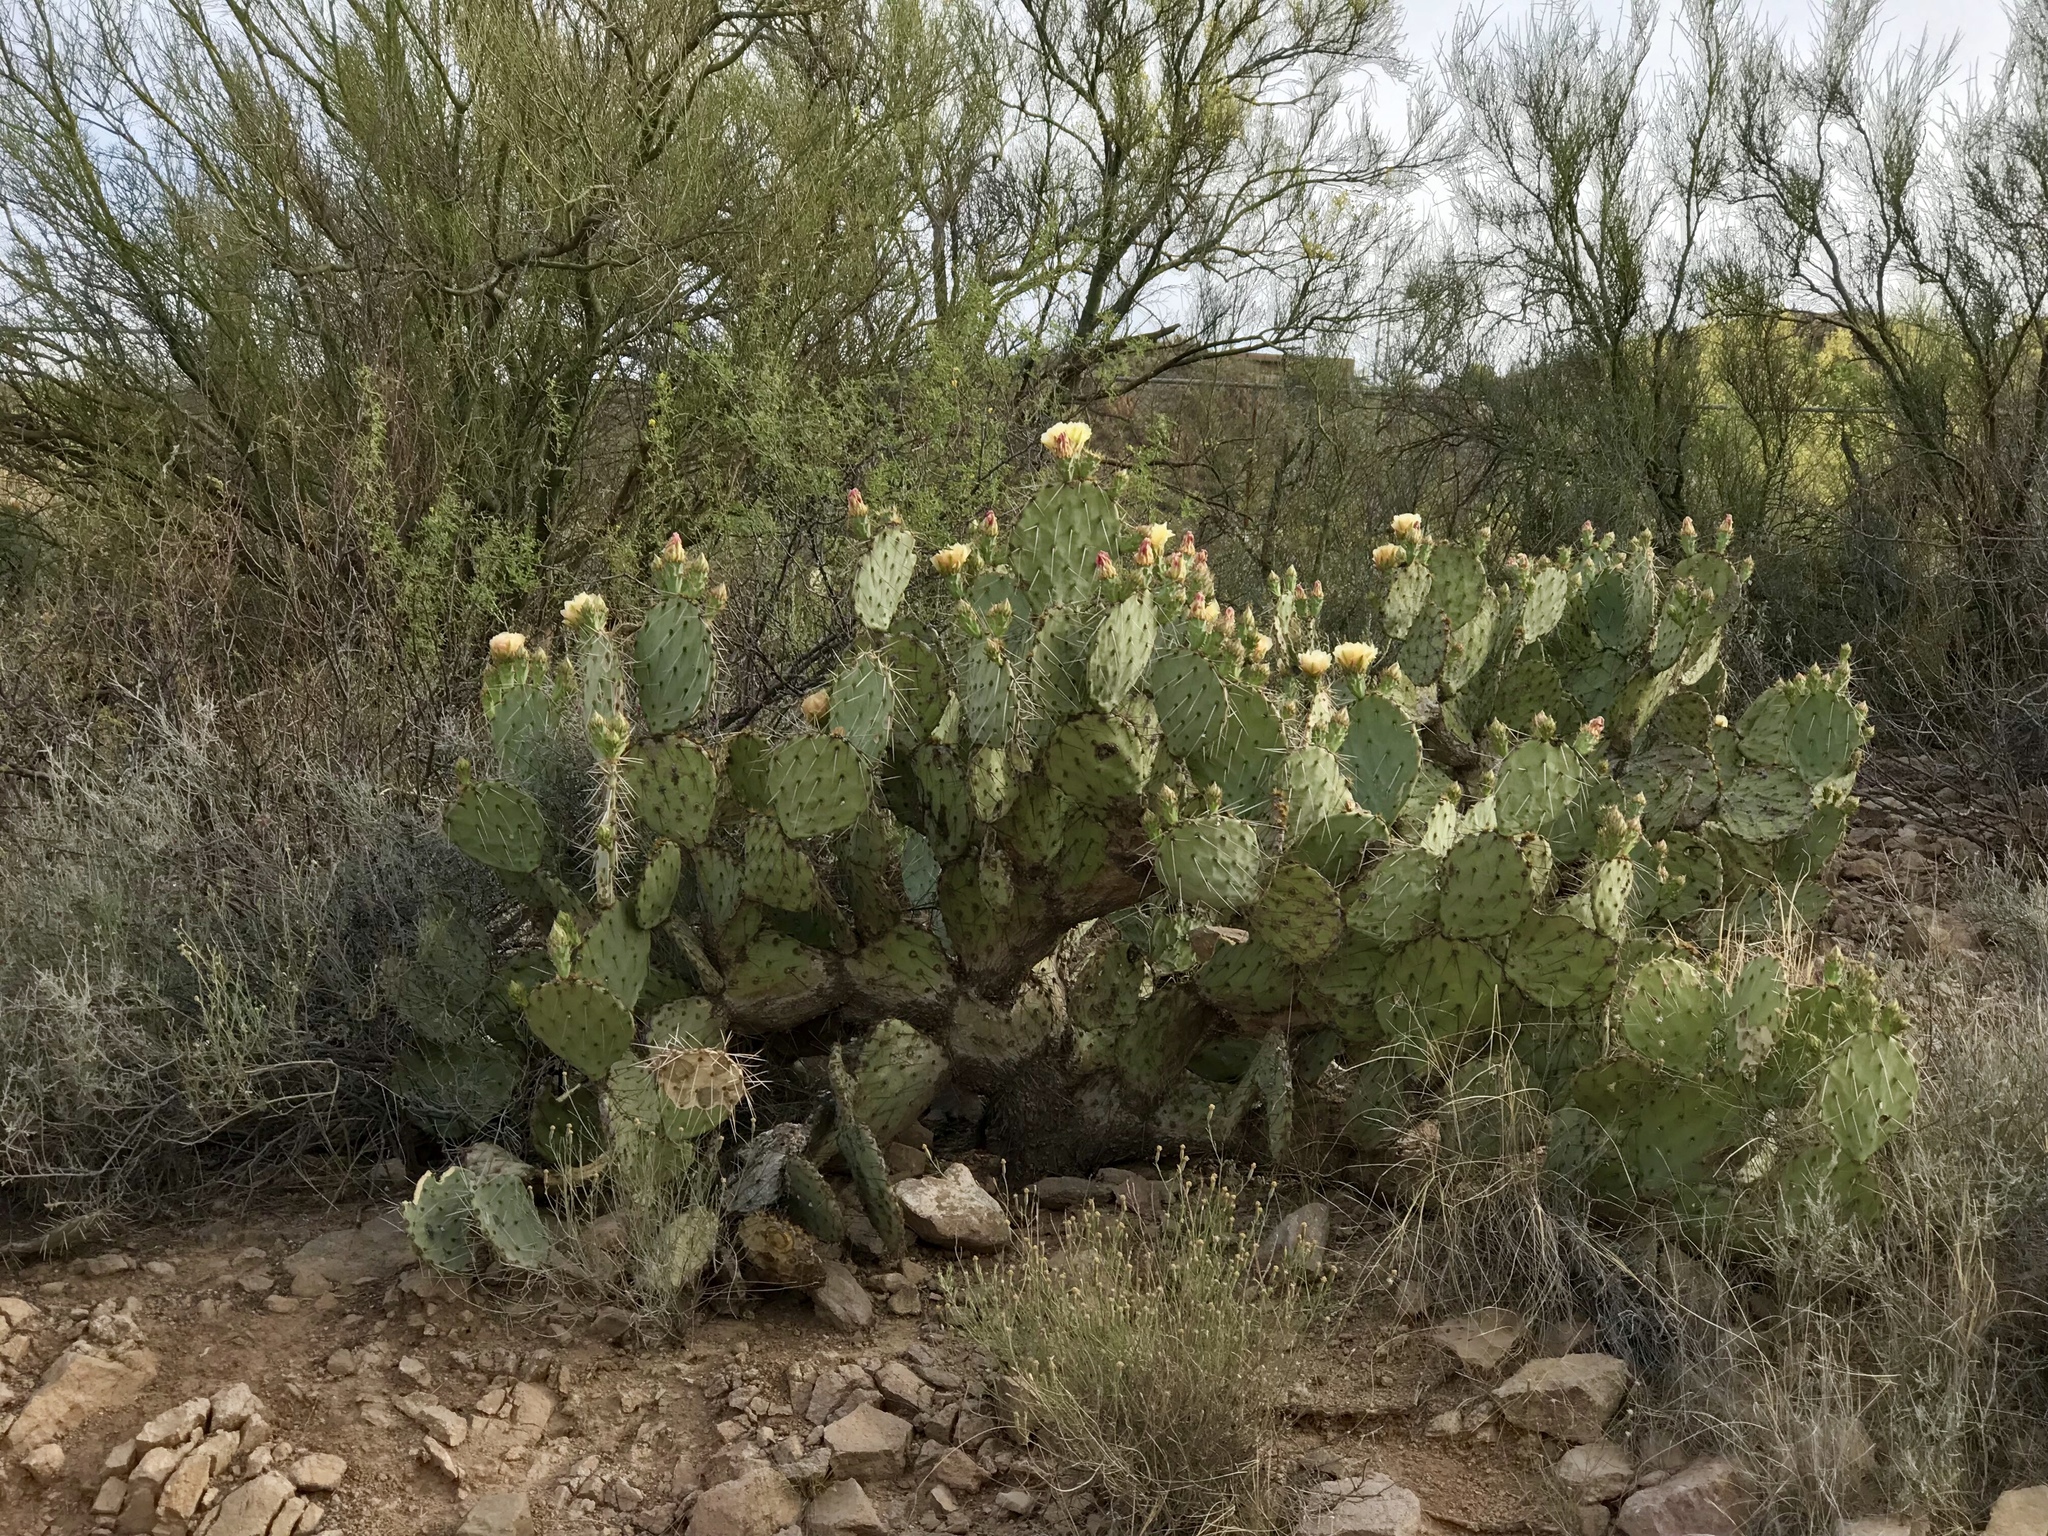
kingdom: Plantae
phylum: Tracheophyta
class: Magnoliopsida
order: Caryophyllales
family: Cactaceae
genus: Opuntia
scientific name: Opuntia engelmannii
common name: Cactus-apple
